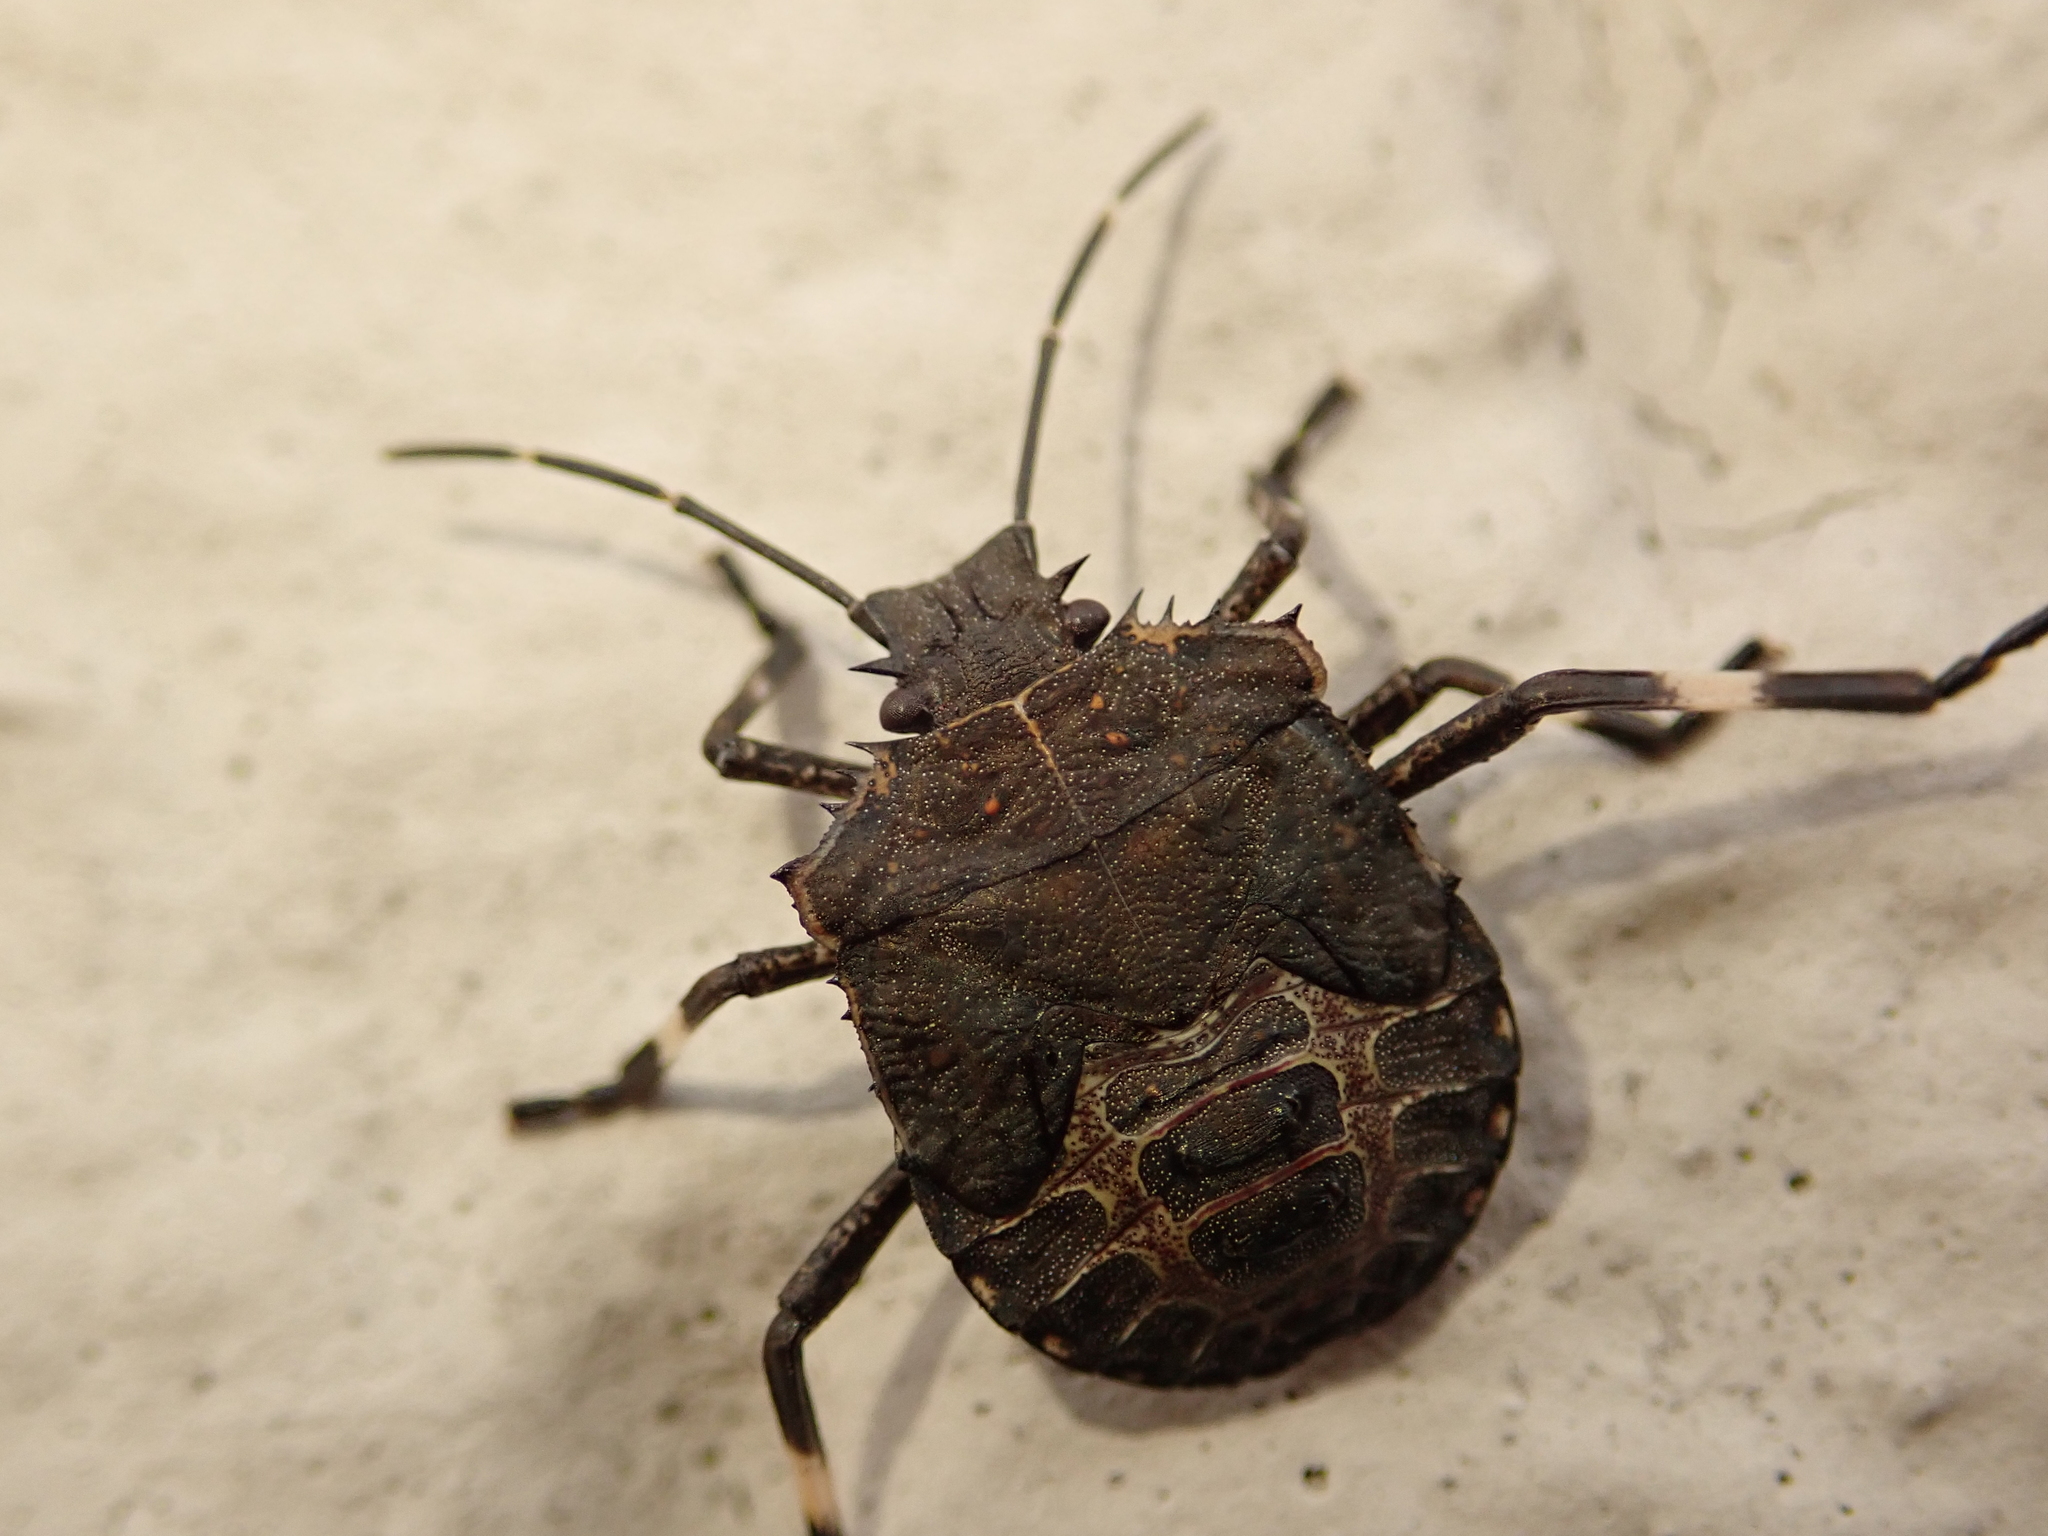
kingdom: Animalia
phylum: Arthropoda
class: Insecta
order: Hemiptera
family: Pentatomidae
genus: Halyomorpha
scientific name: Halyomorpha halys
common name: Brown marmorated stink bug
